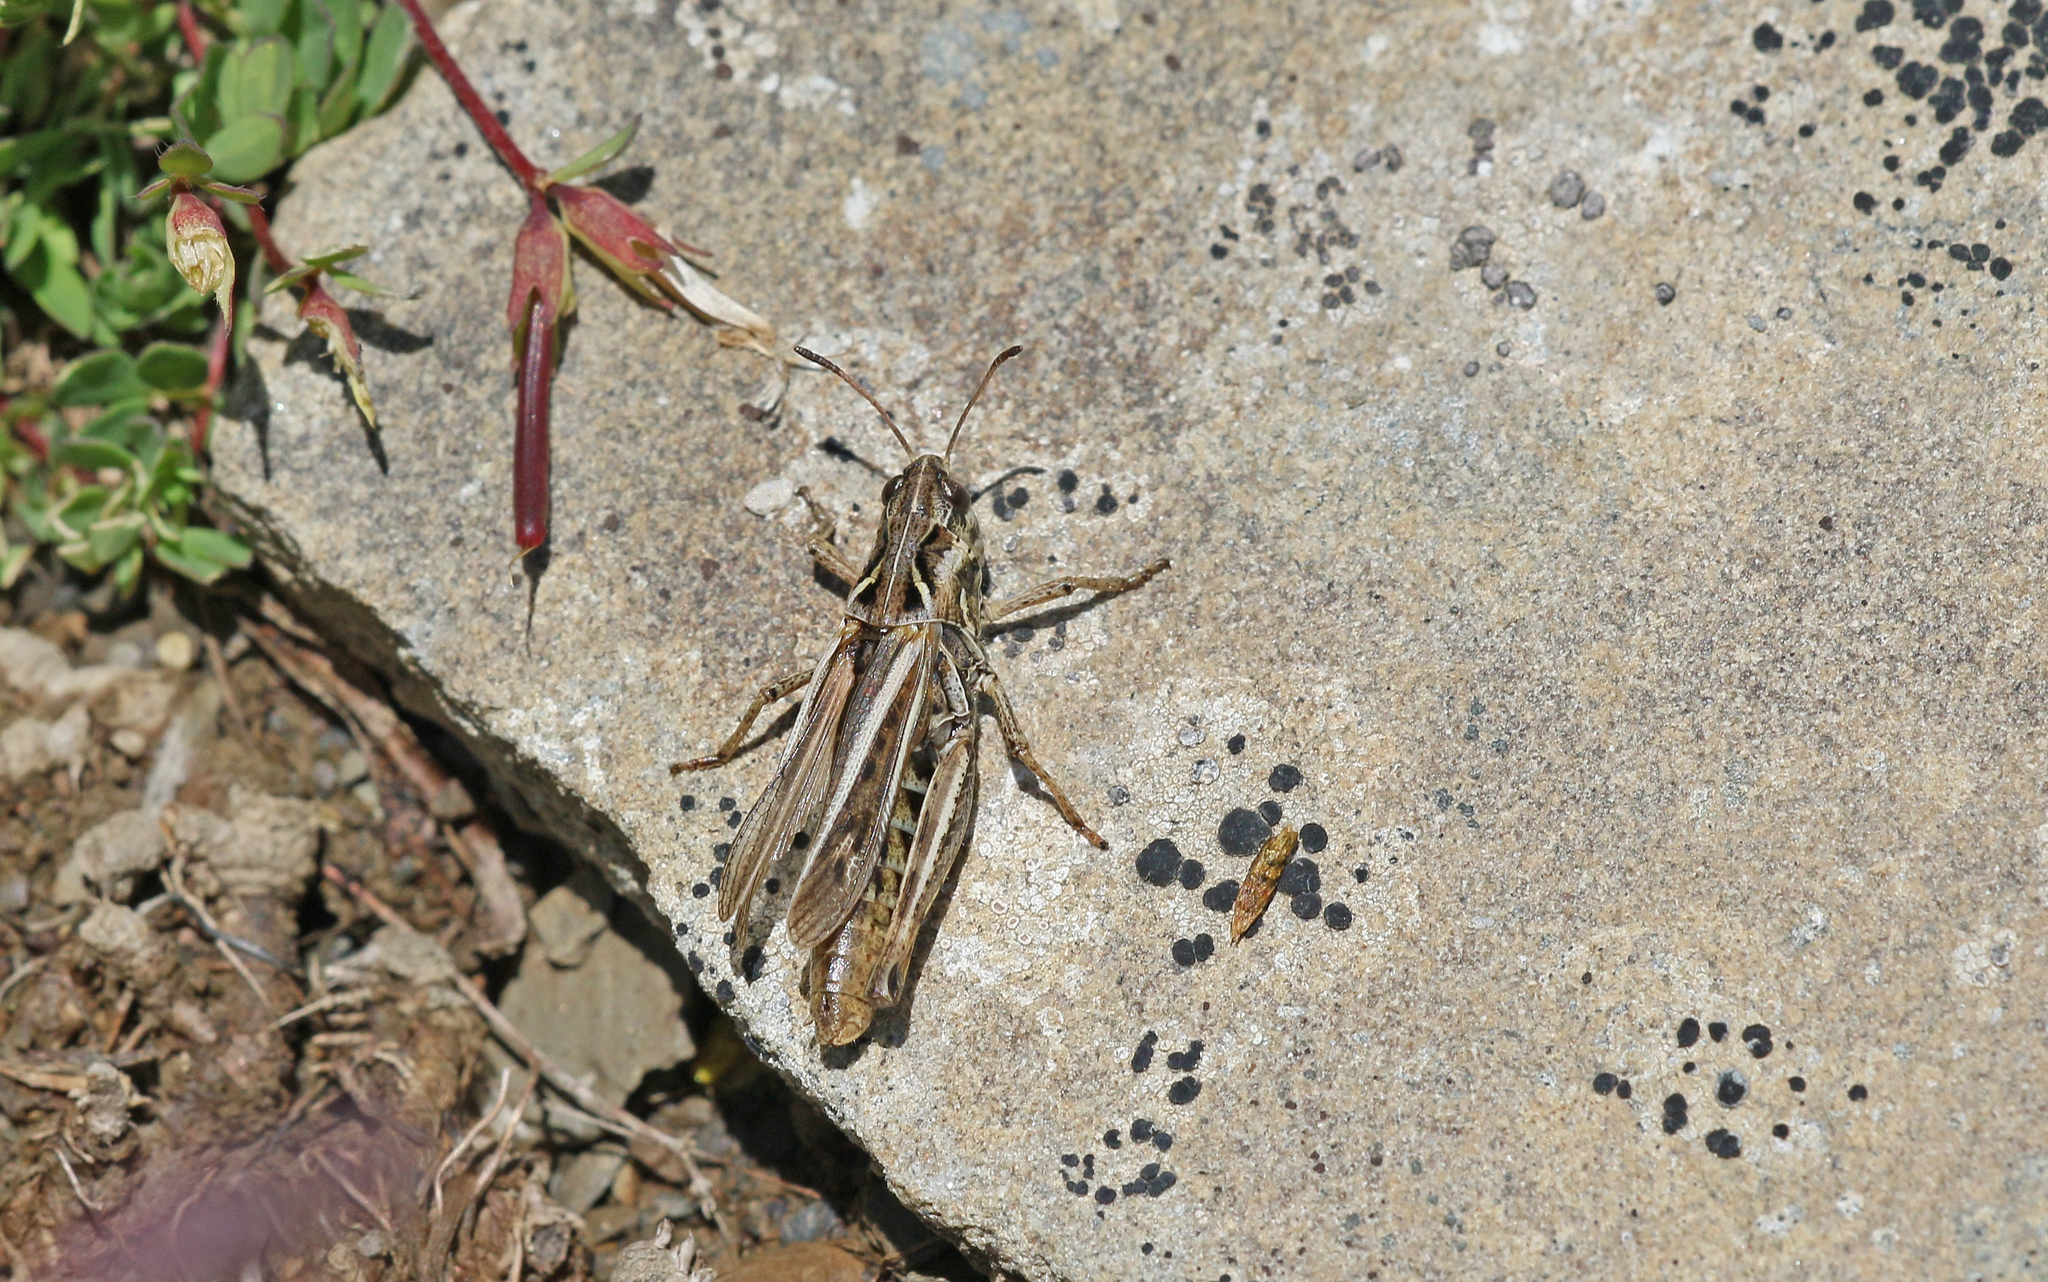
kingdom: Animalia
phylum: Arthropoda
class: Insecta
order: Orthoptera
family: Acrididae
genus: Gomphocerus
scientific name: Gomphocerus sibiricus
